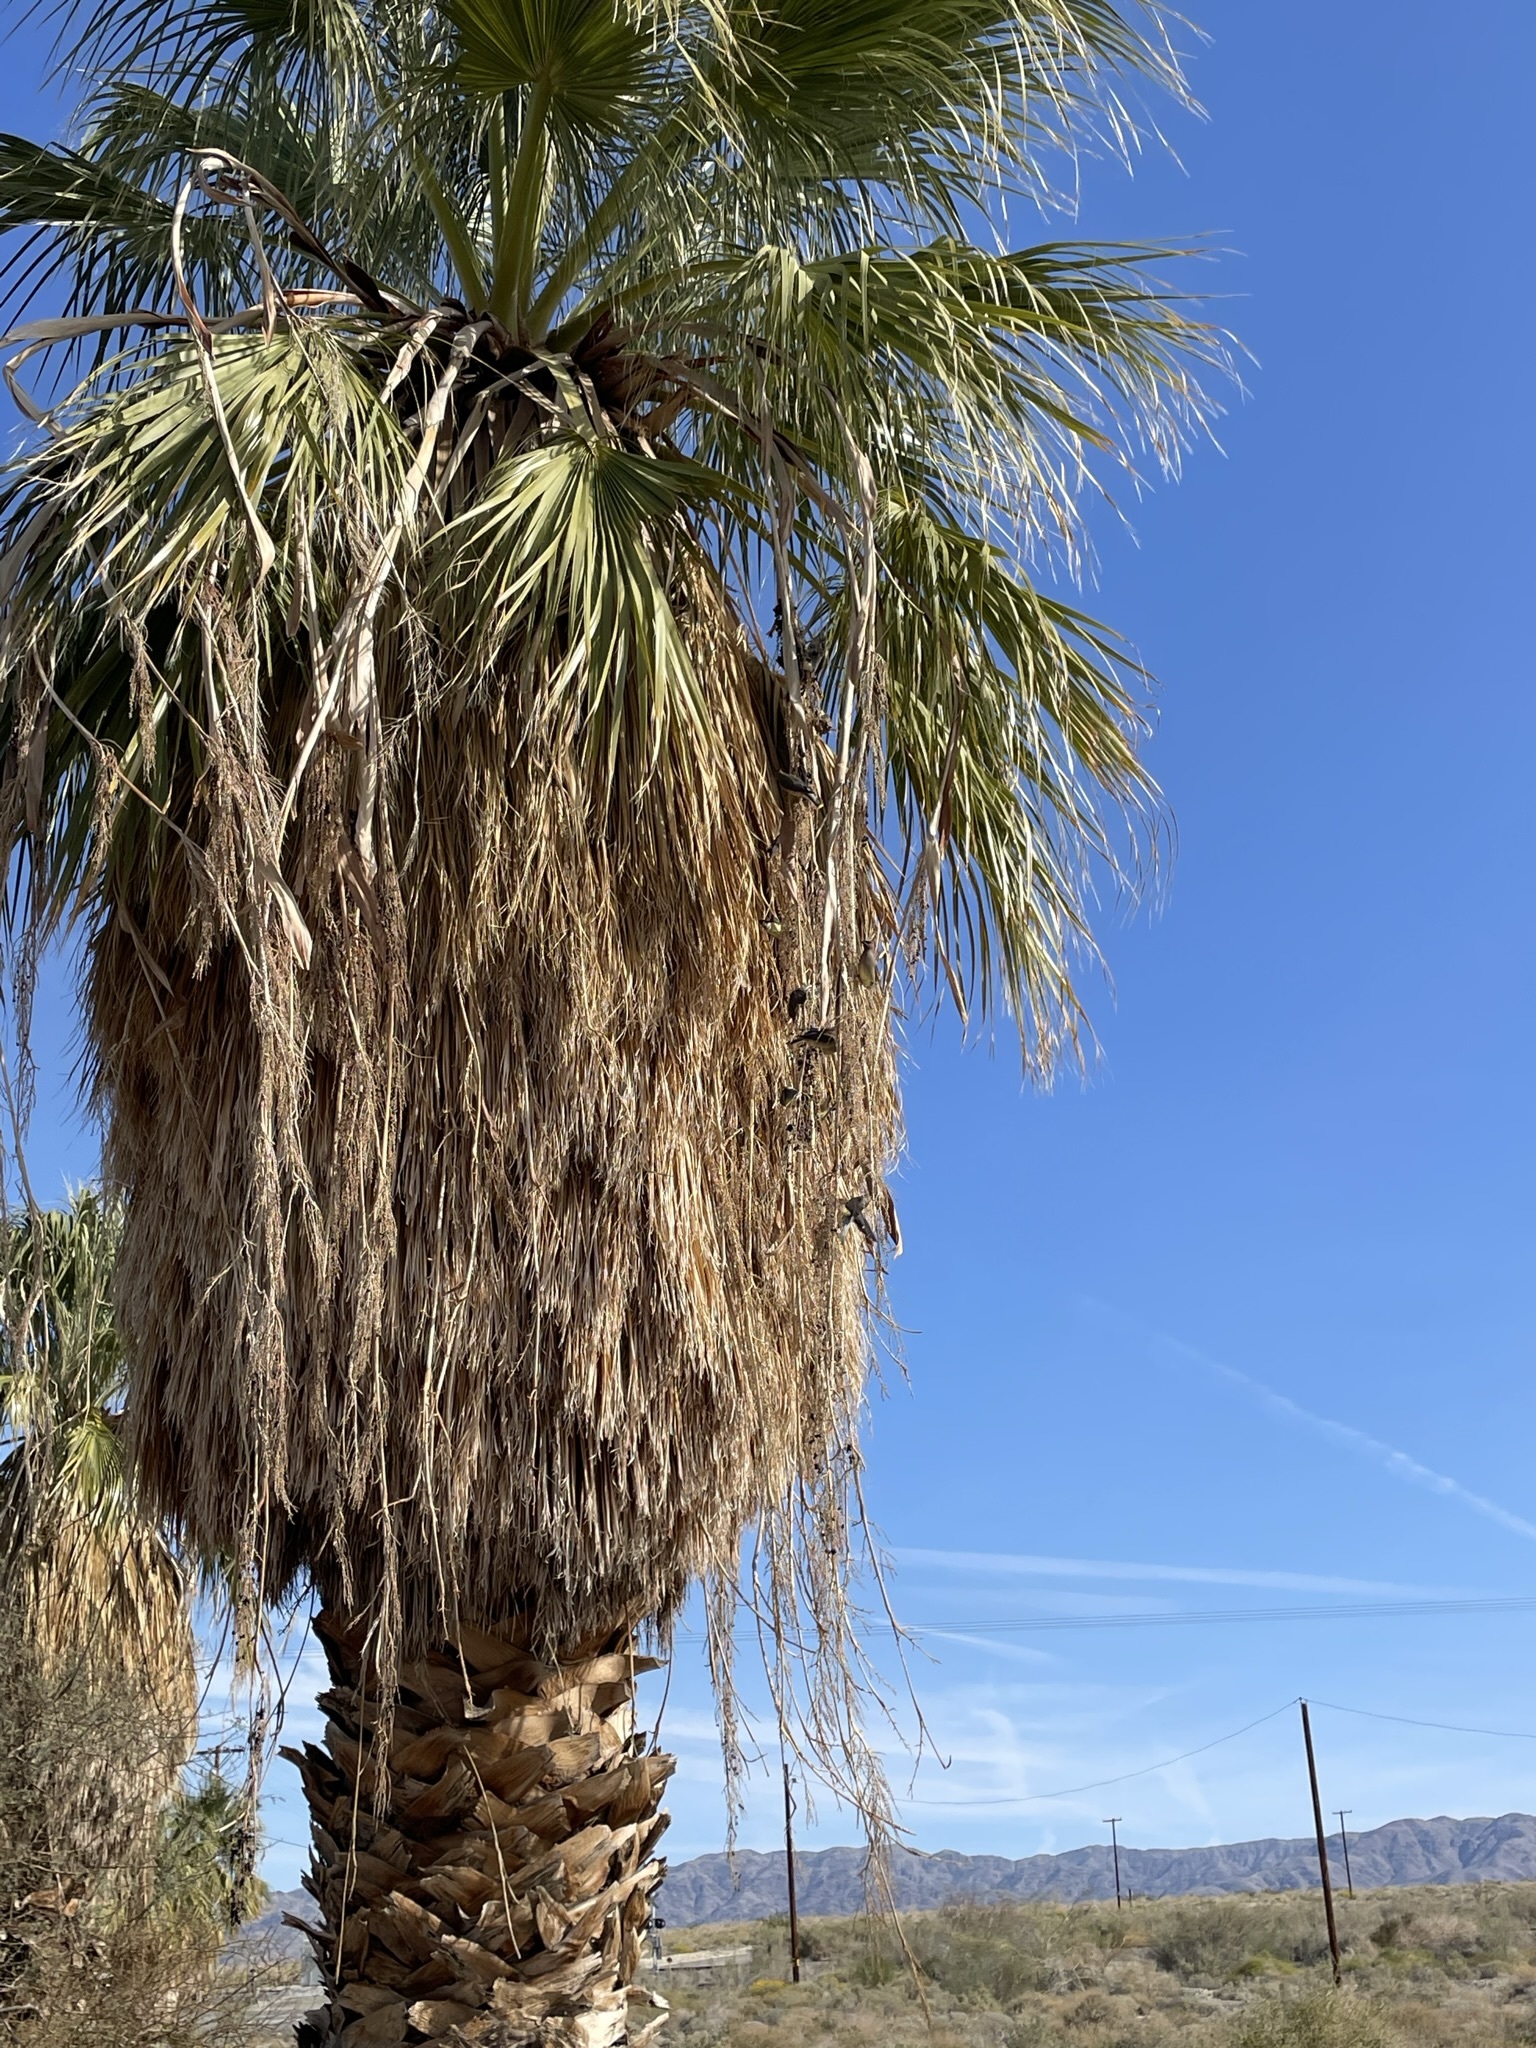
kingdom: Animalia
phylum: Chordata
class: Aves
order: Passeriformes
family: Bombycillidae
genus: Bombycilla
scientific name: Bombycilla cedrorum
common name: Cedar waxwing
